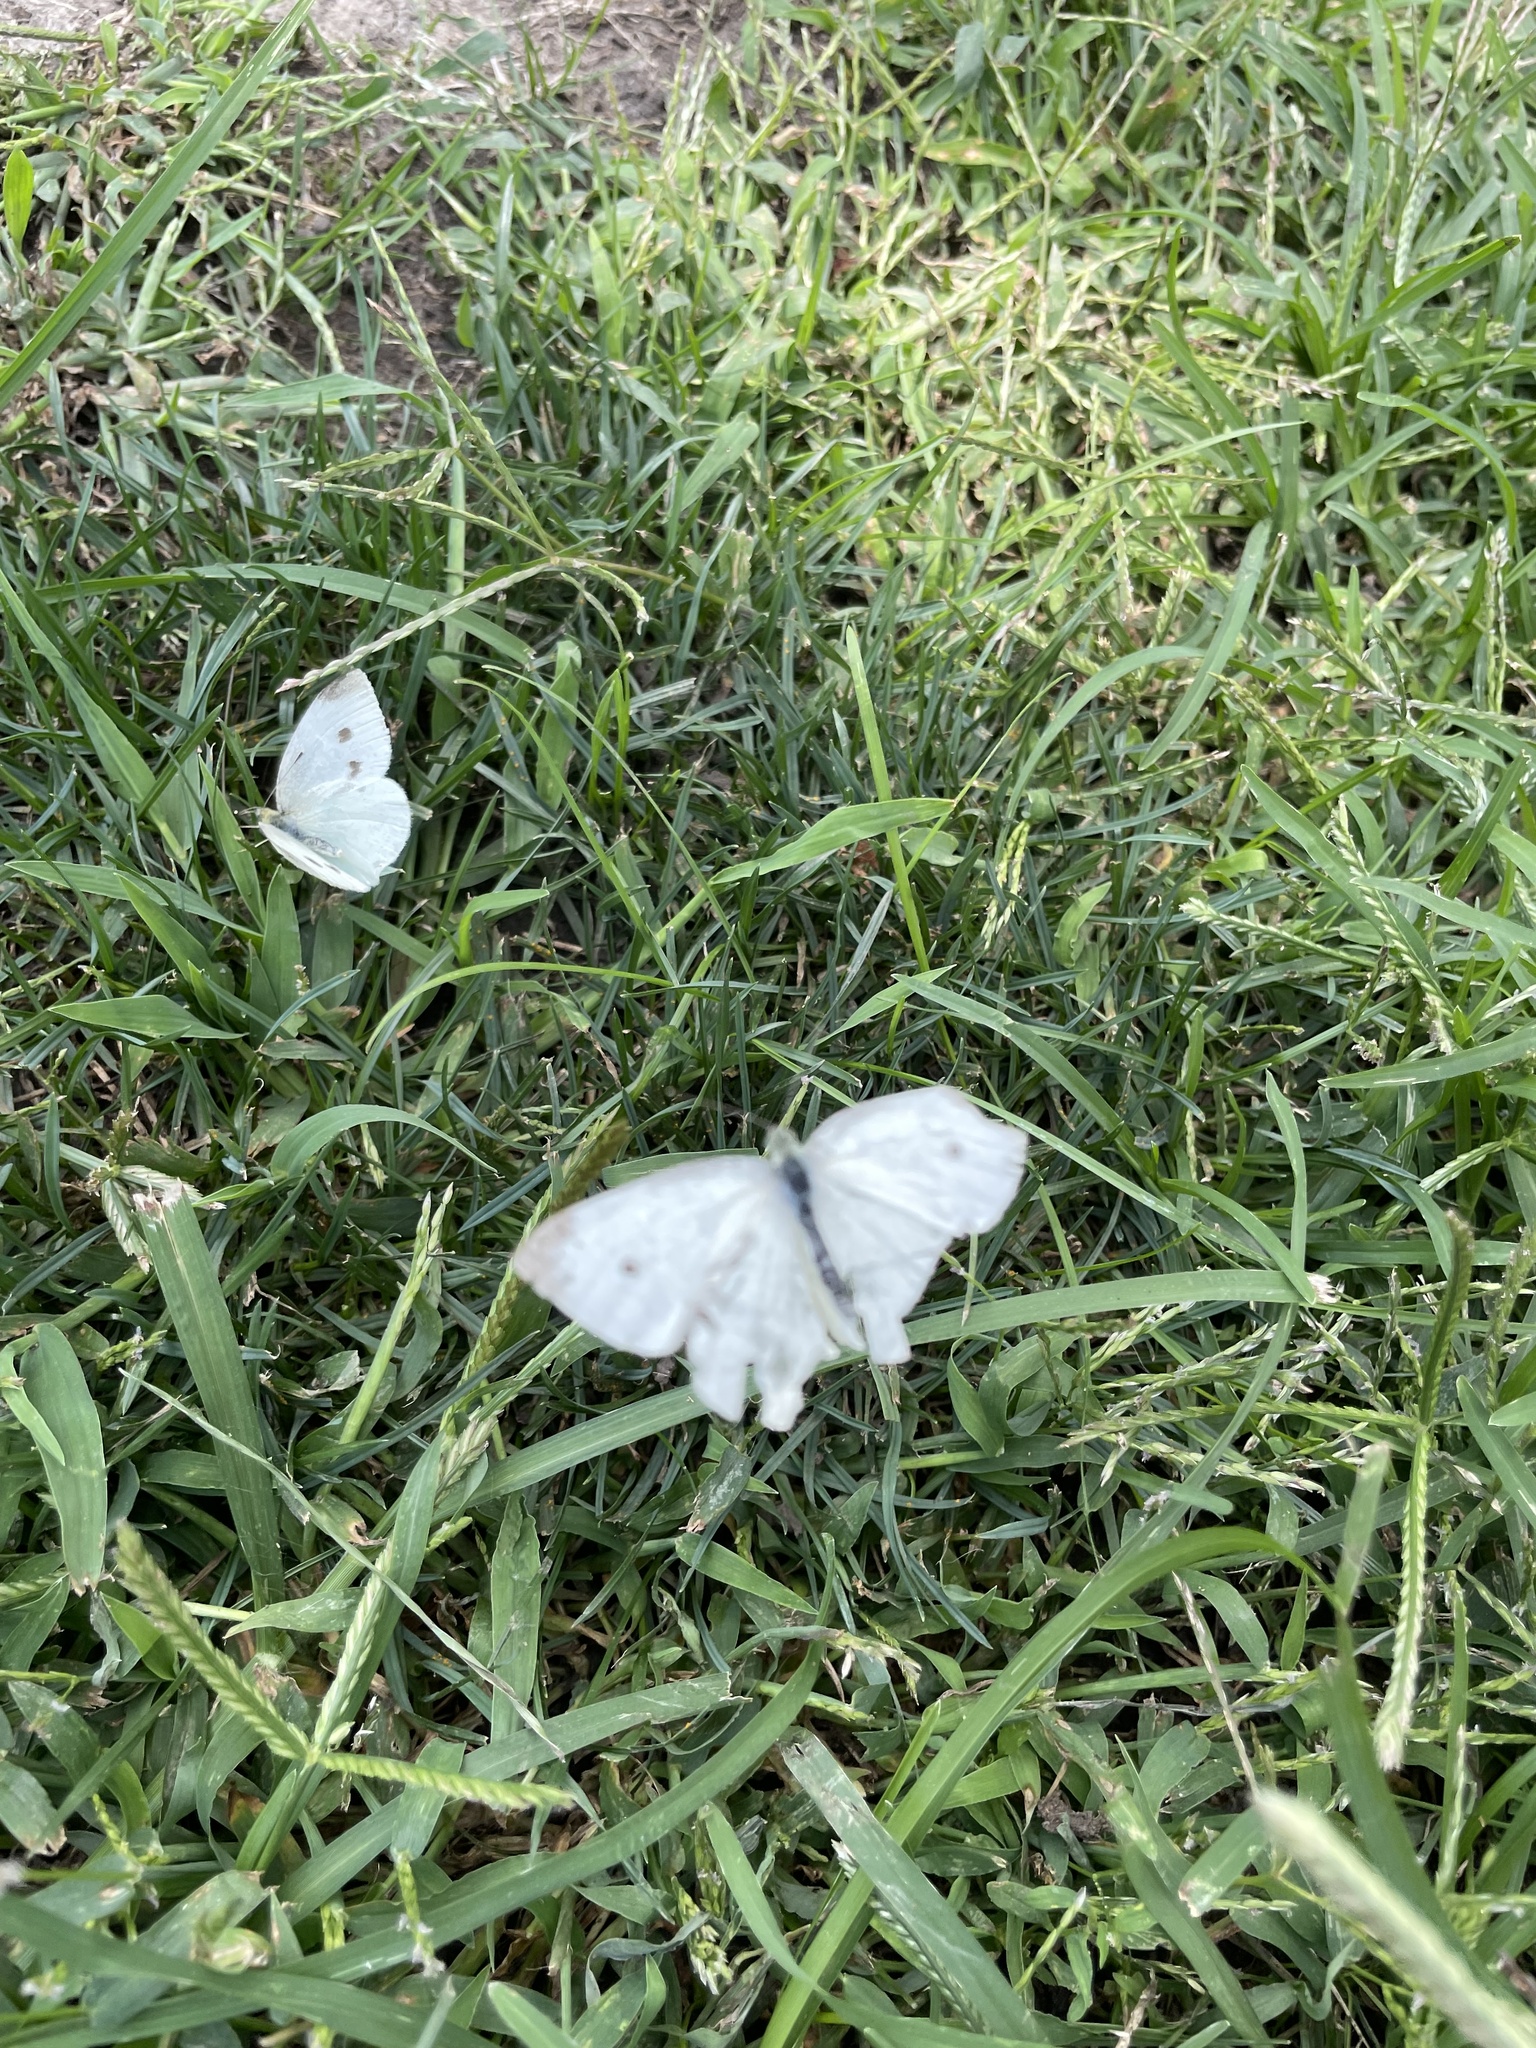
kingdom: Animalia
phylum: Arthropoda
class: Insecta
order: Lepidoptera
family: Pieridae
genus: Pieris
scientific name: Pieris rapae
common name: Small white
